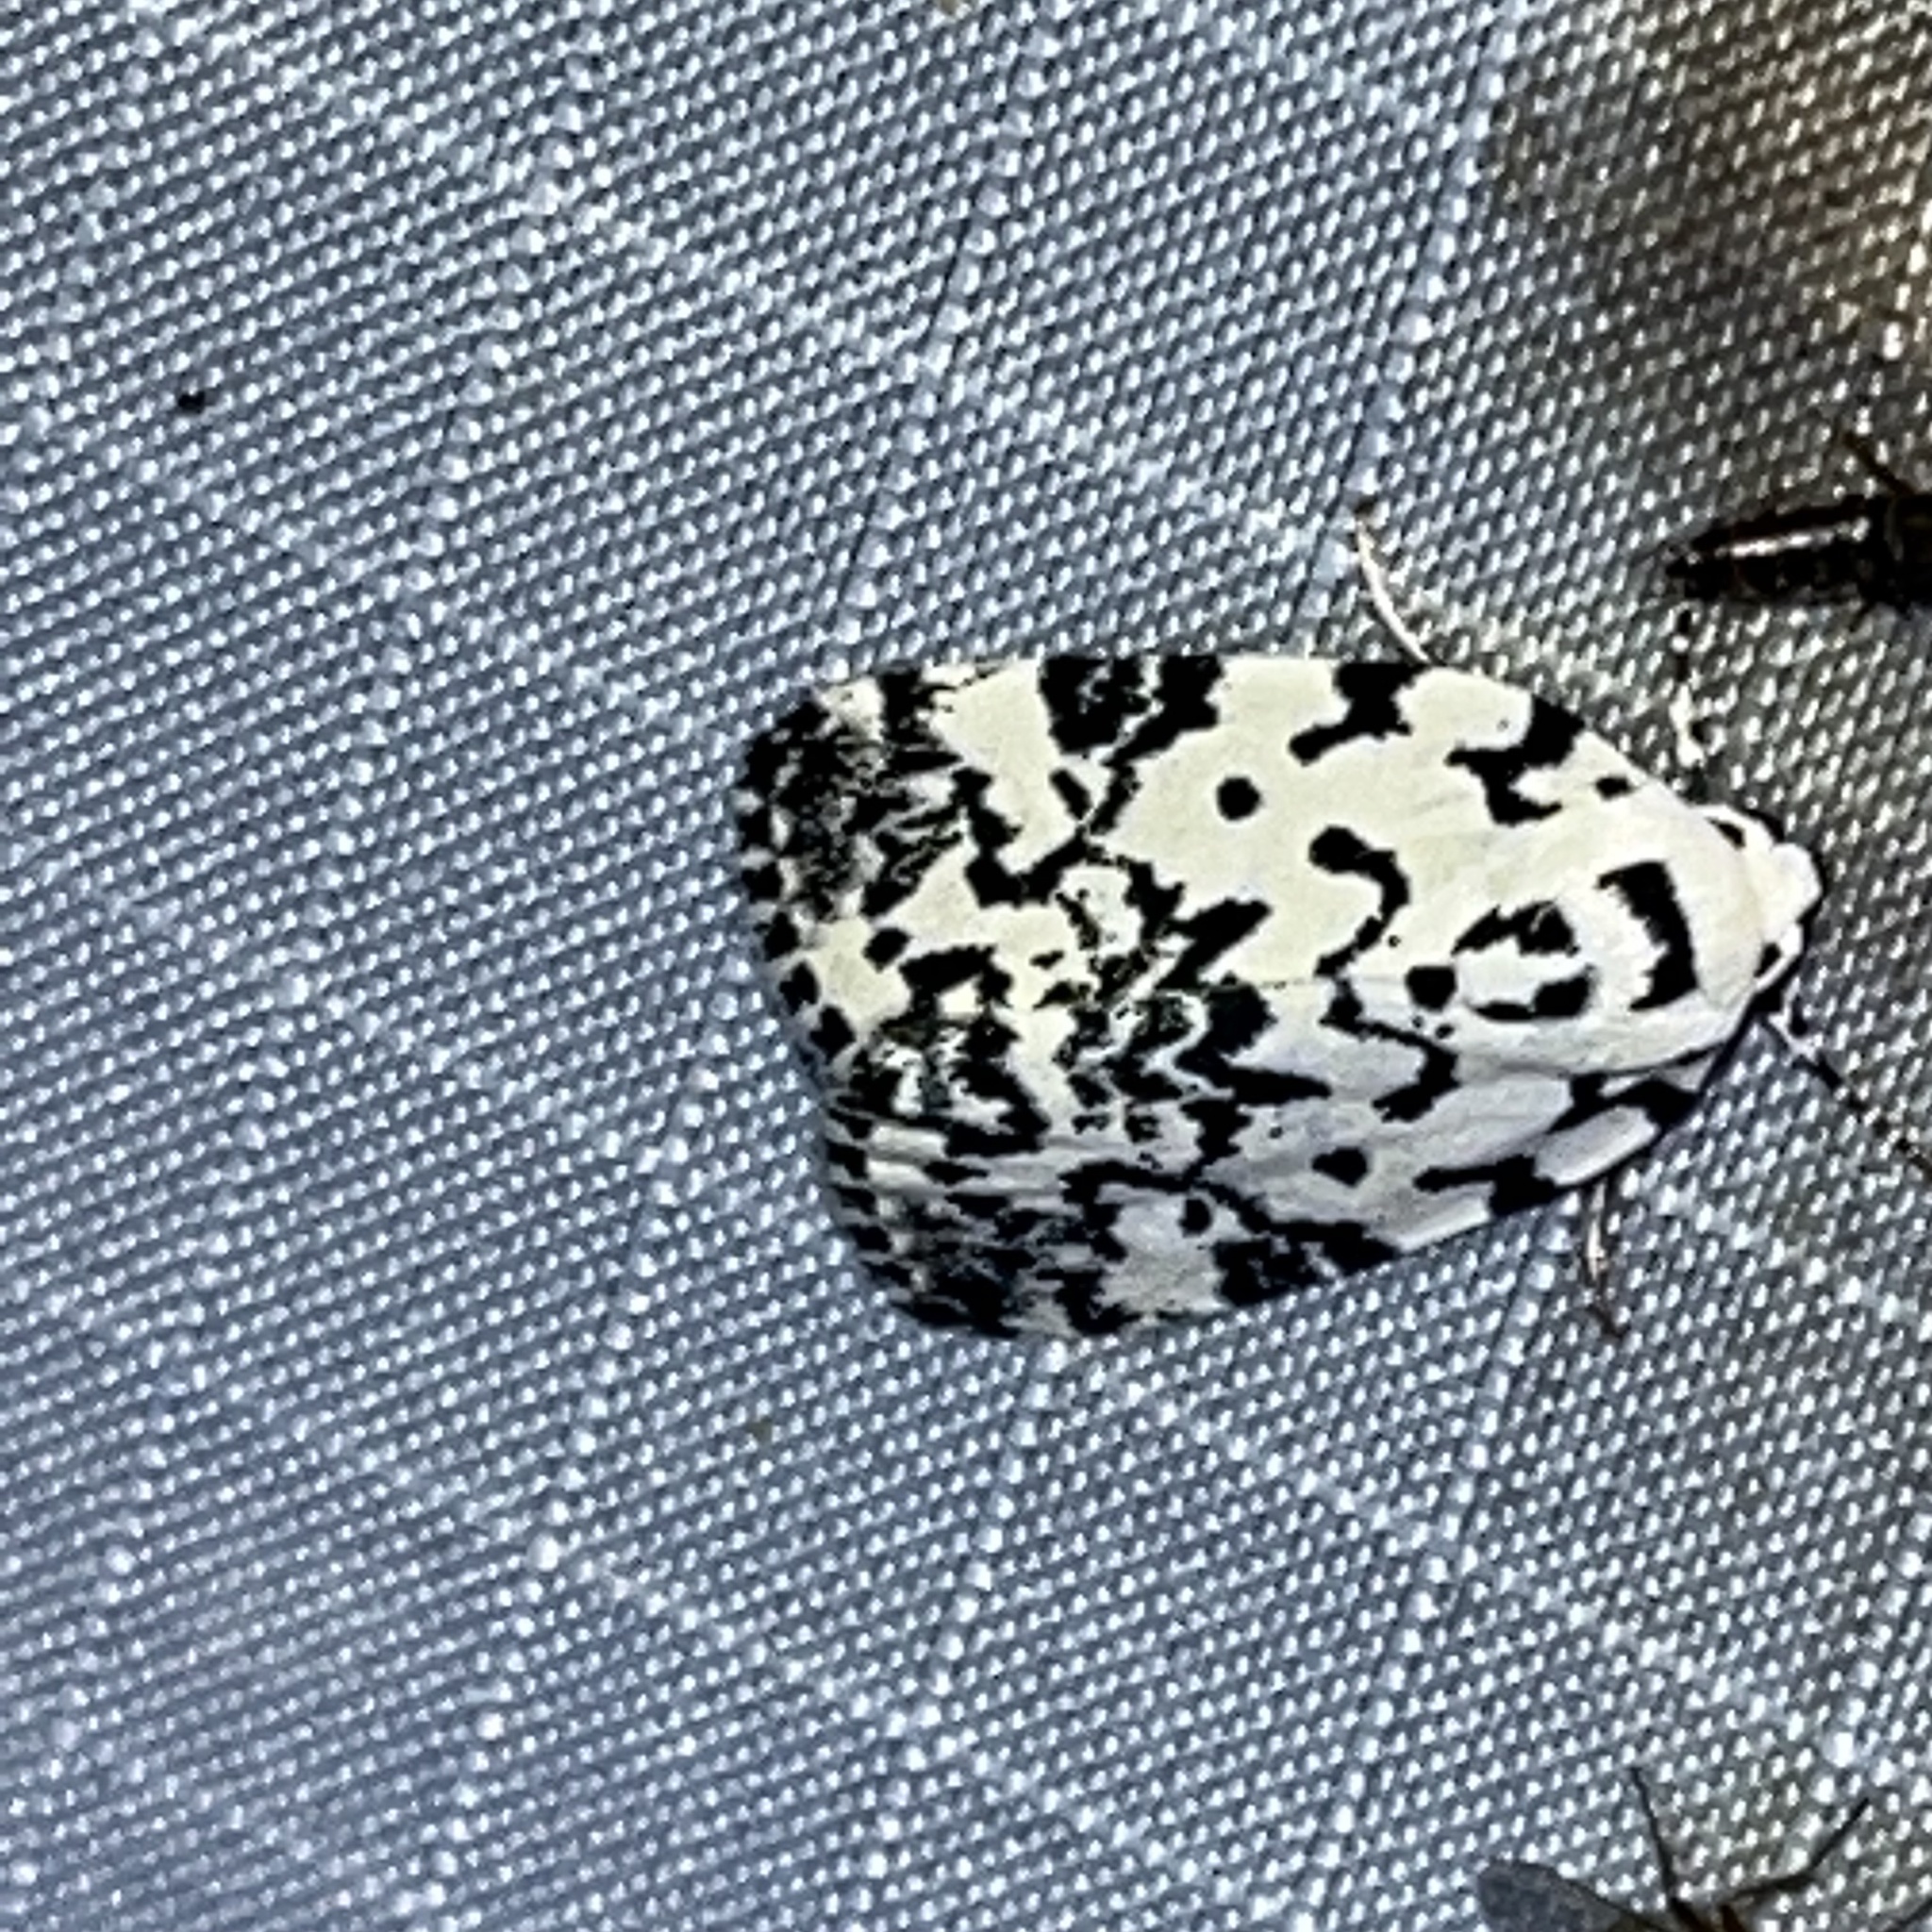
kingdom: Animalia
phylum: Arthropoda
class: Insecta
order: Lepidoptera
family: Noctuidae
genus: Polygrammate
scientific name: Polygrammate hebraeicum
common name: Hebrew moth
